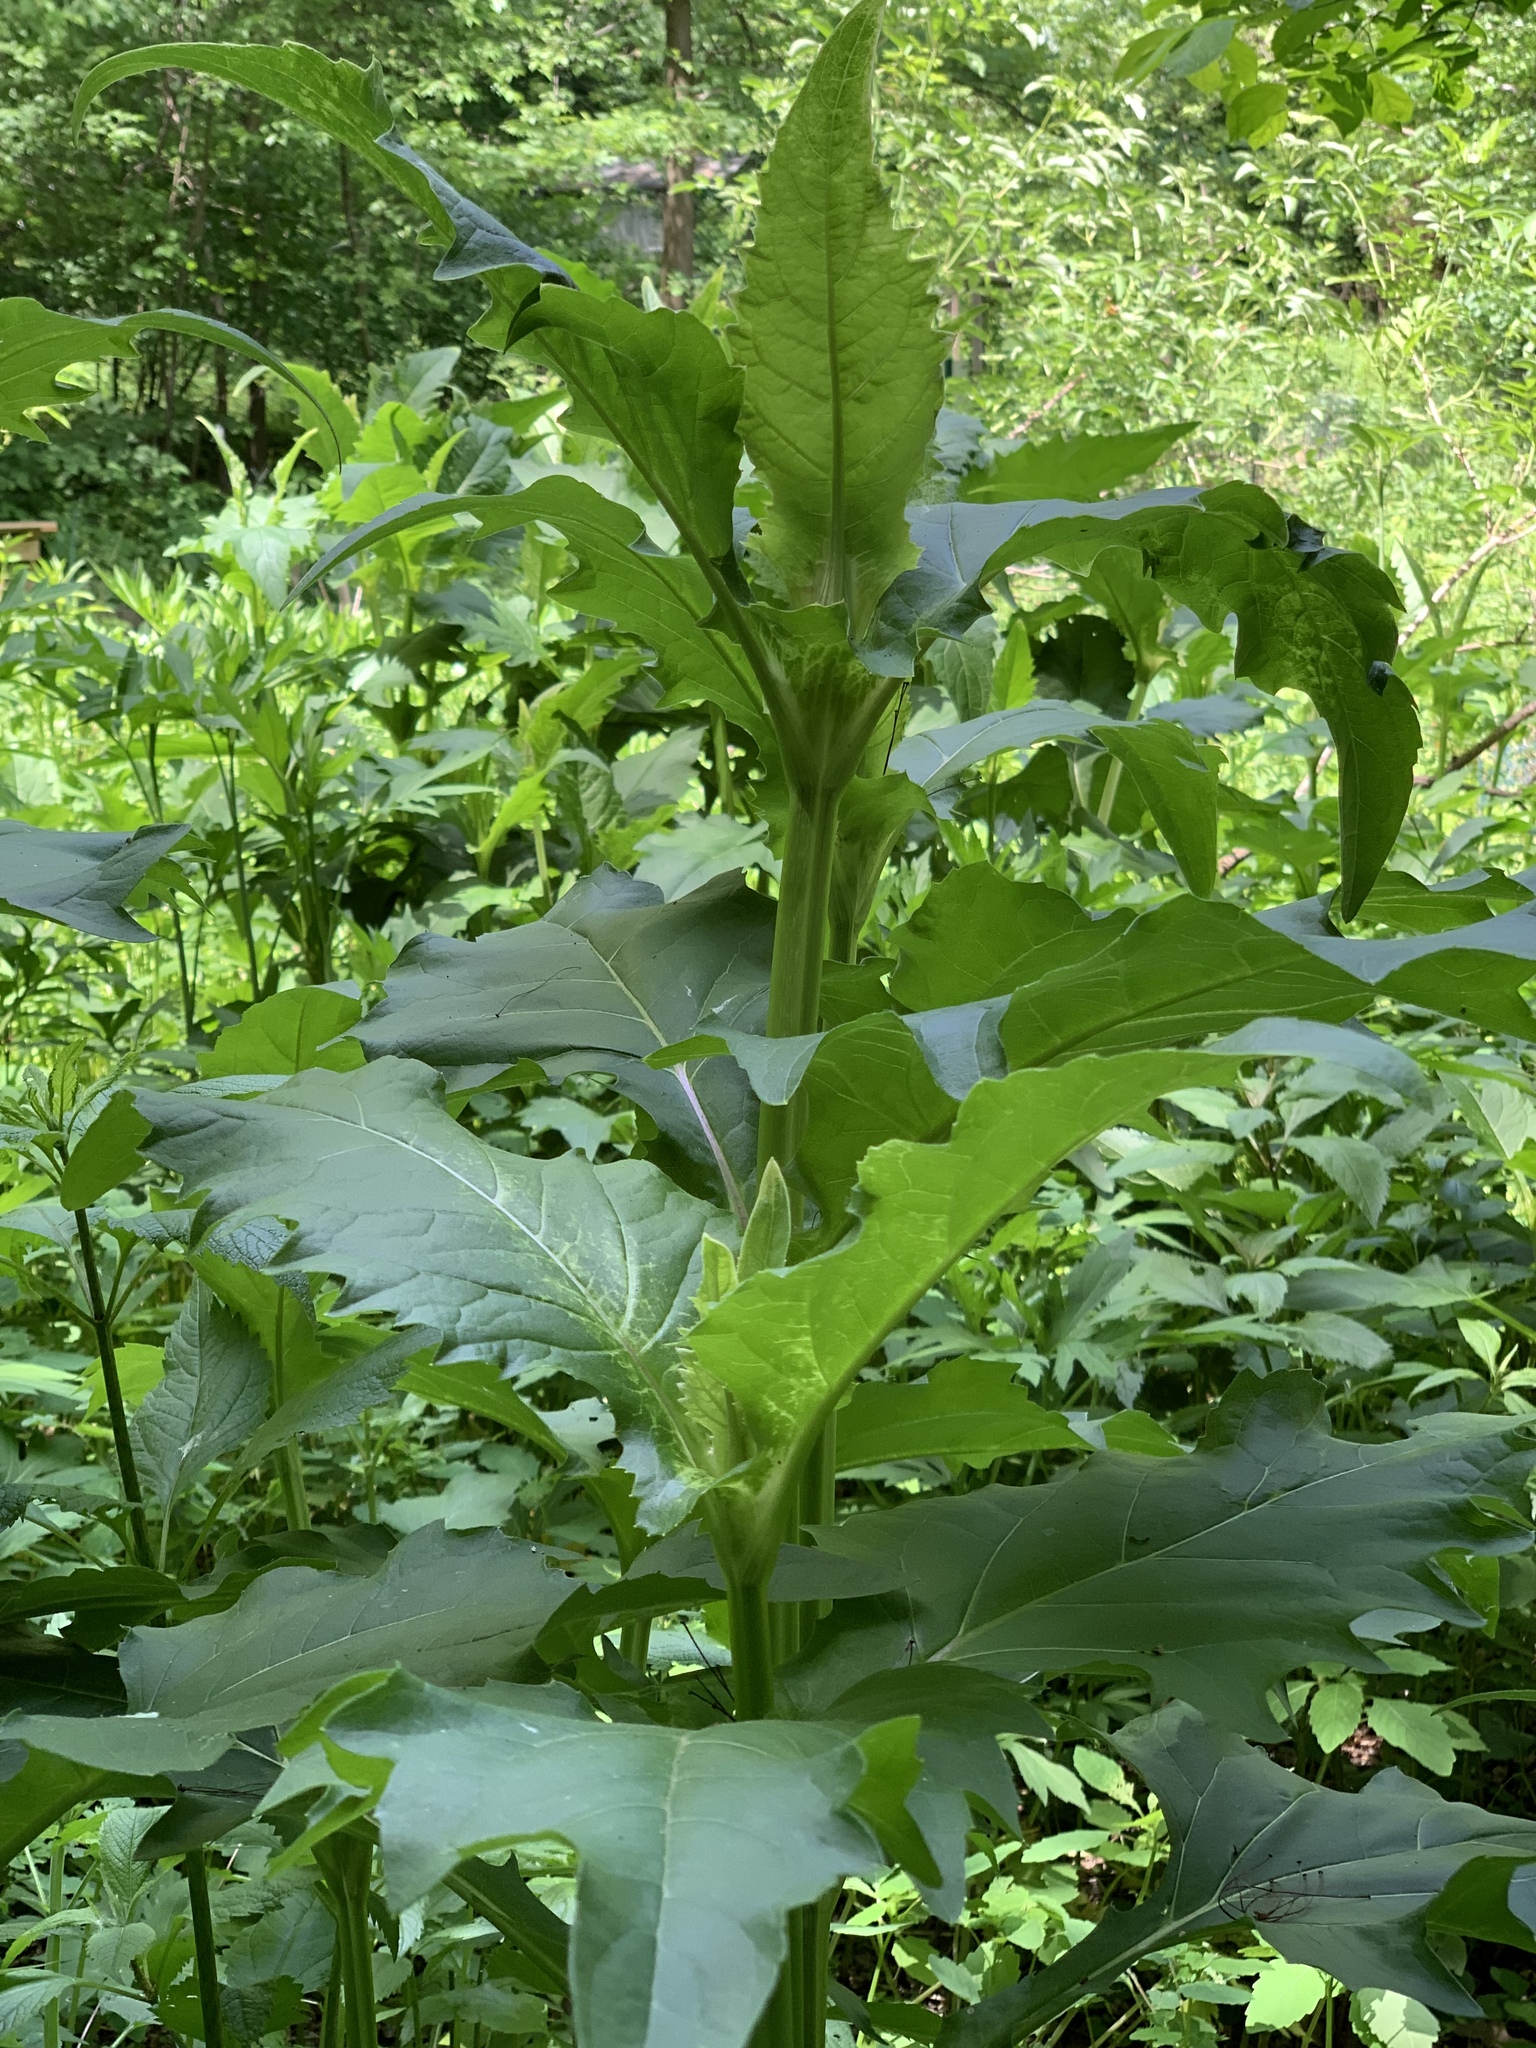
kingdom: Plantae
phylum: Tracheophyta
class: Magnoliopsida
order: Asterales
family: Asteraceae
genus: Silphium
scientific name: Silphium perfoliatum
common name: Cup-plant
